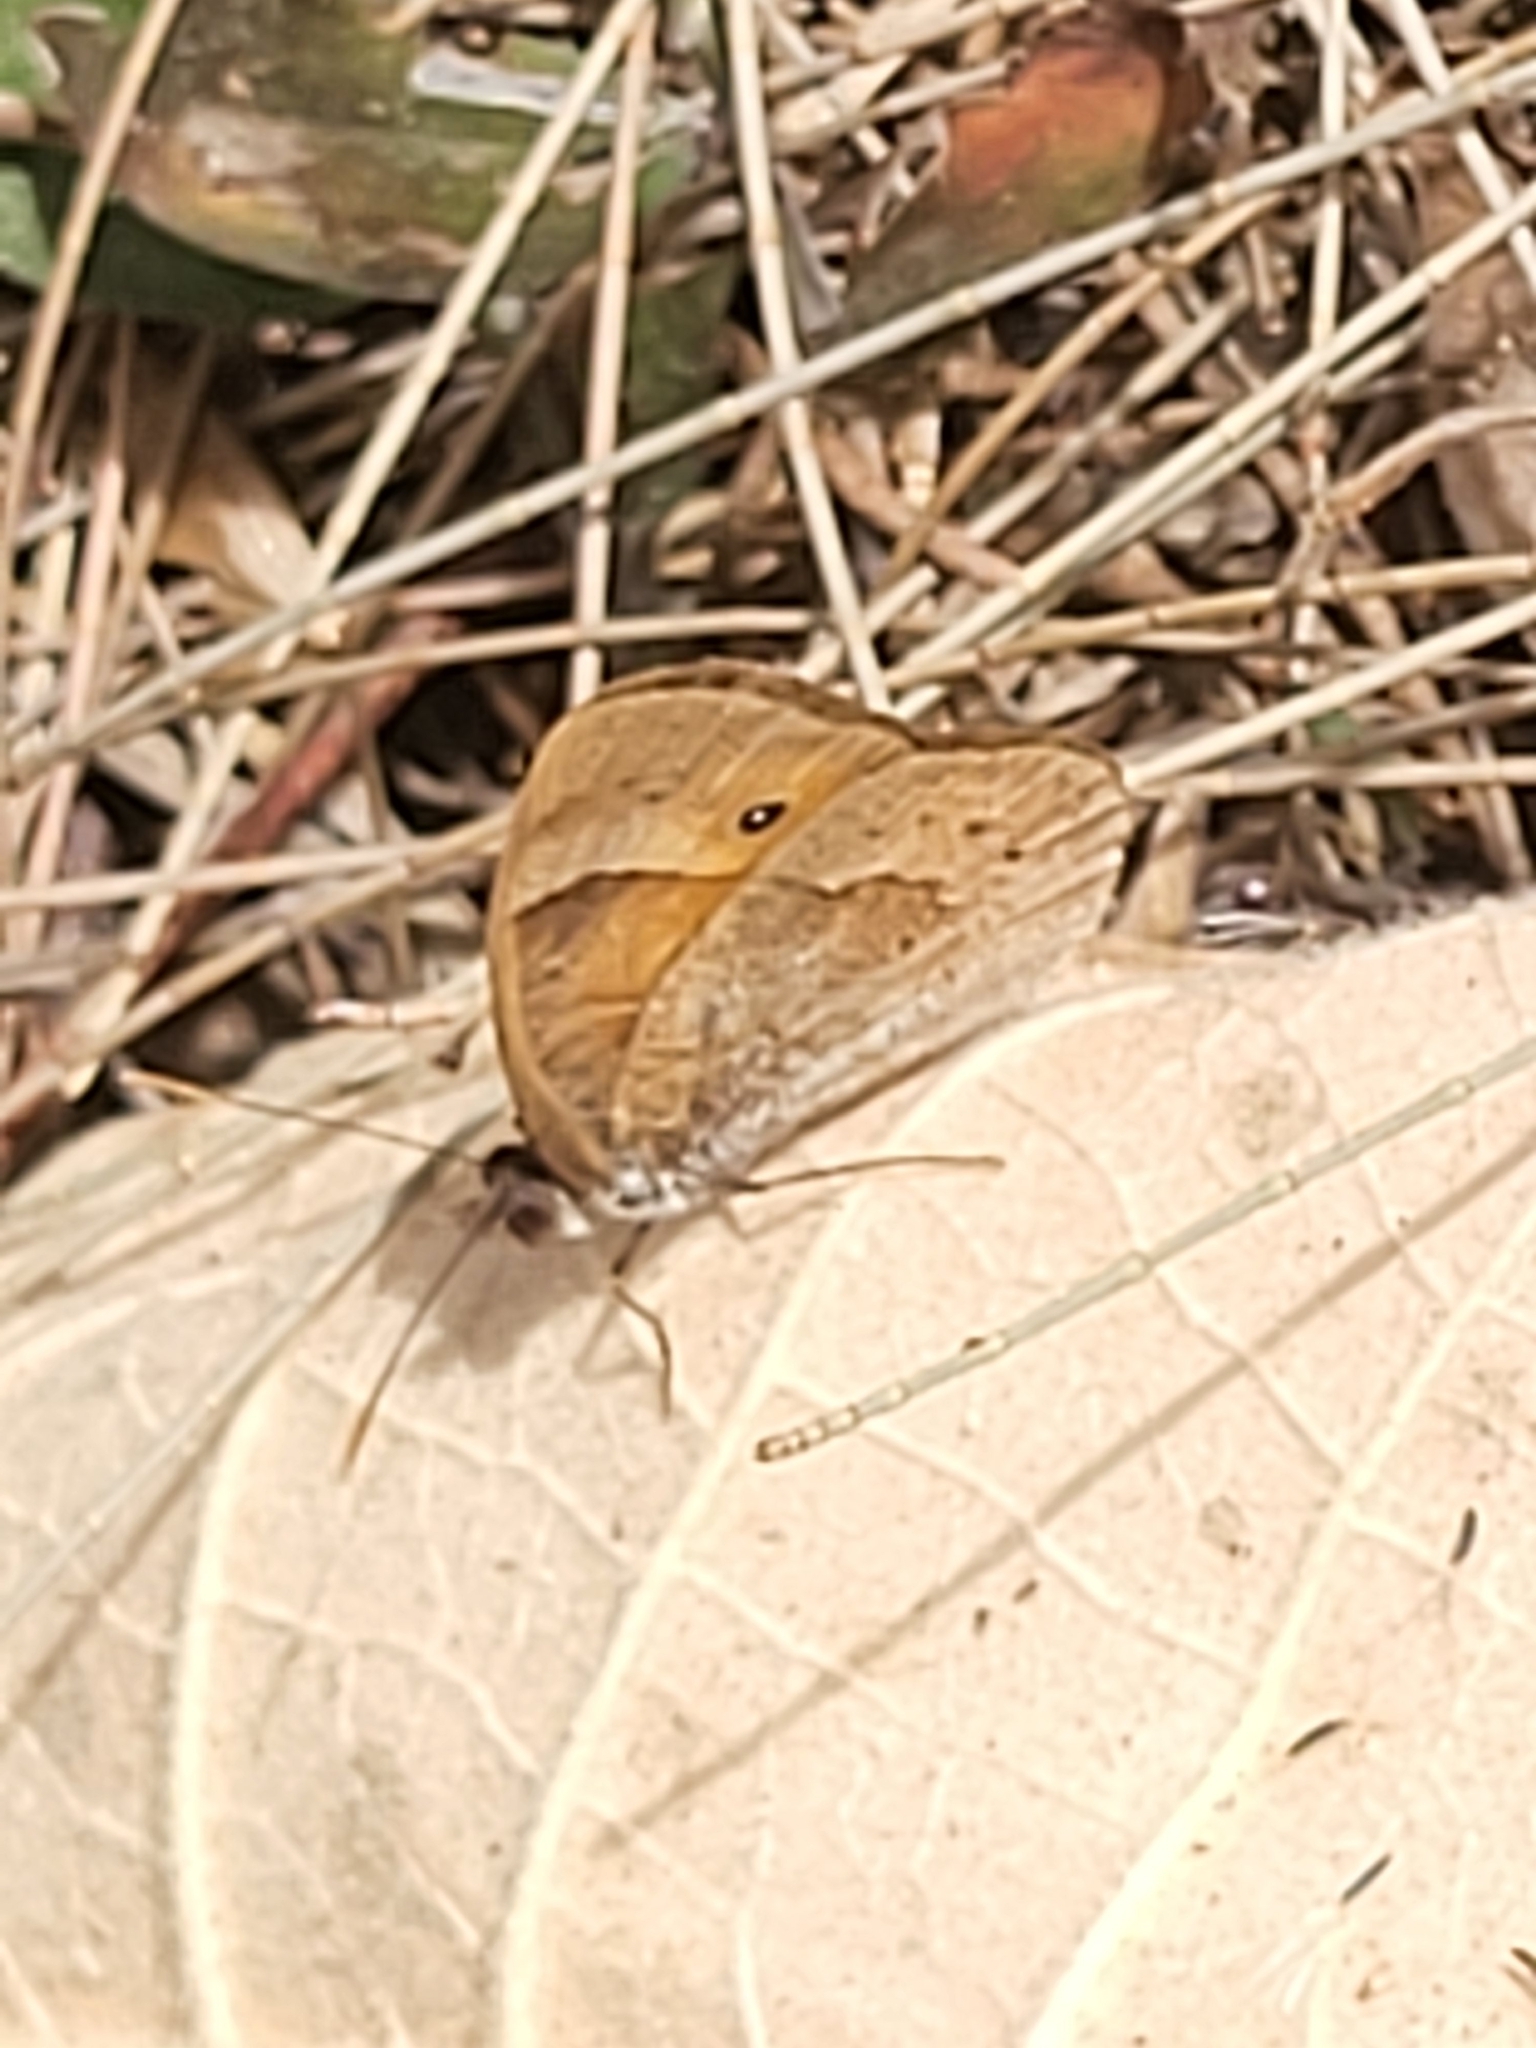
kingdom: Animalia
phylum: Arthropoda
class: Insecta
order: Lepidoptera
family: Nymphalidae
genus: Henotesia
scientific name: Henotesia narcissus
